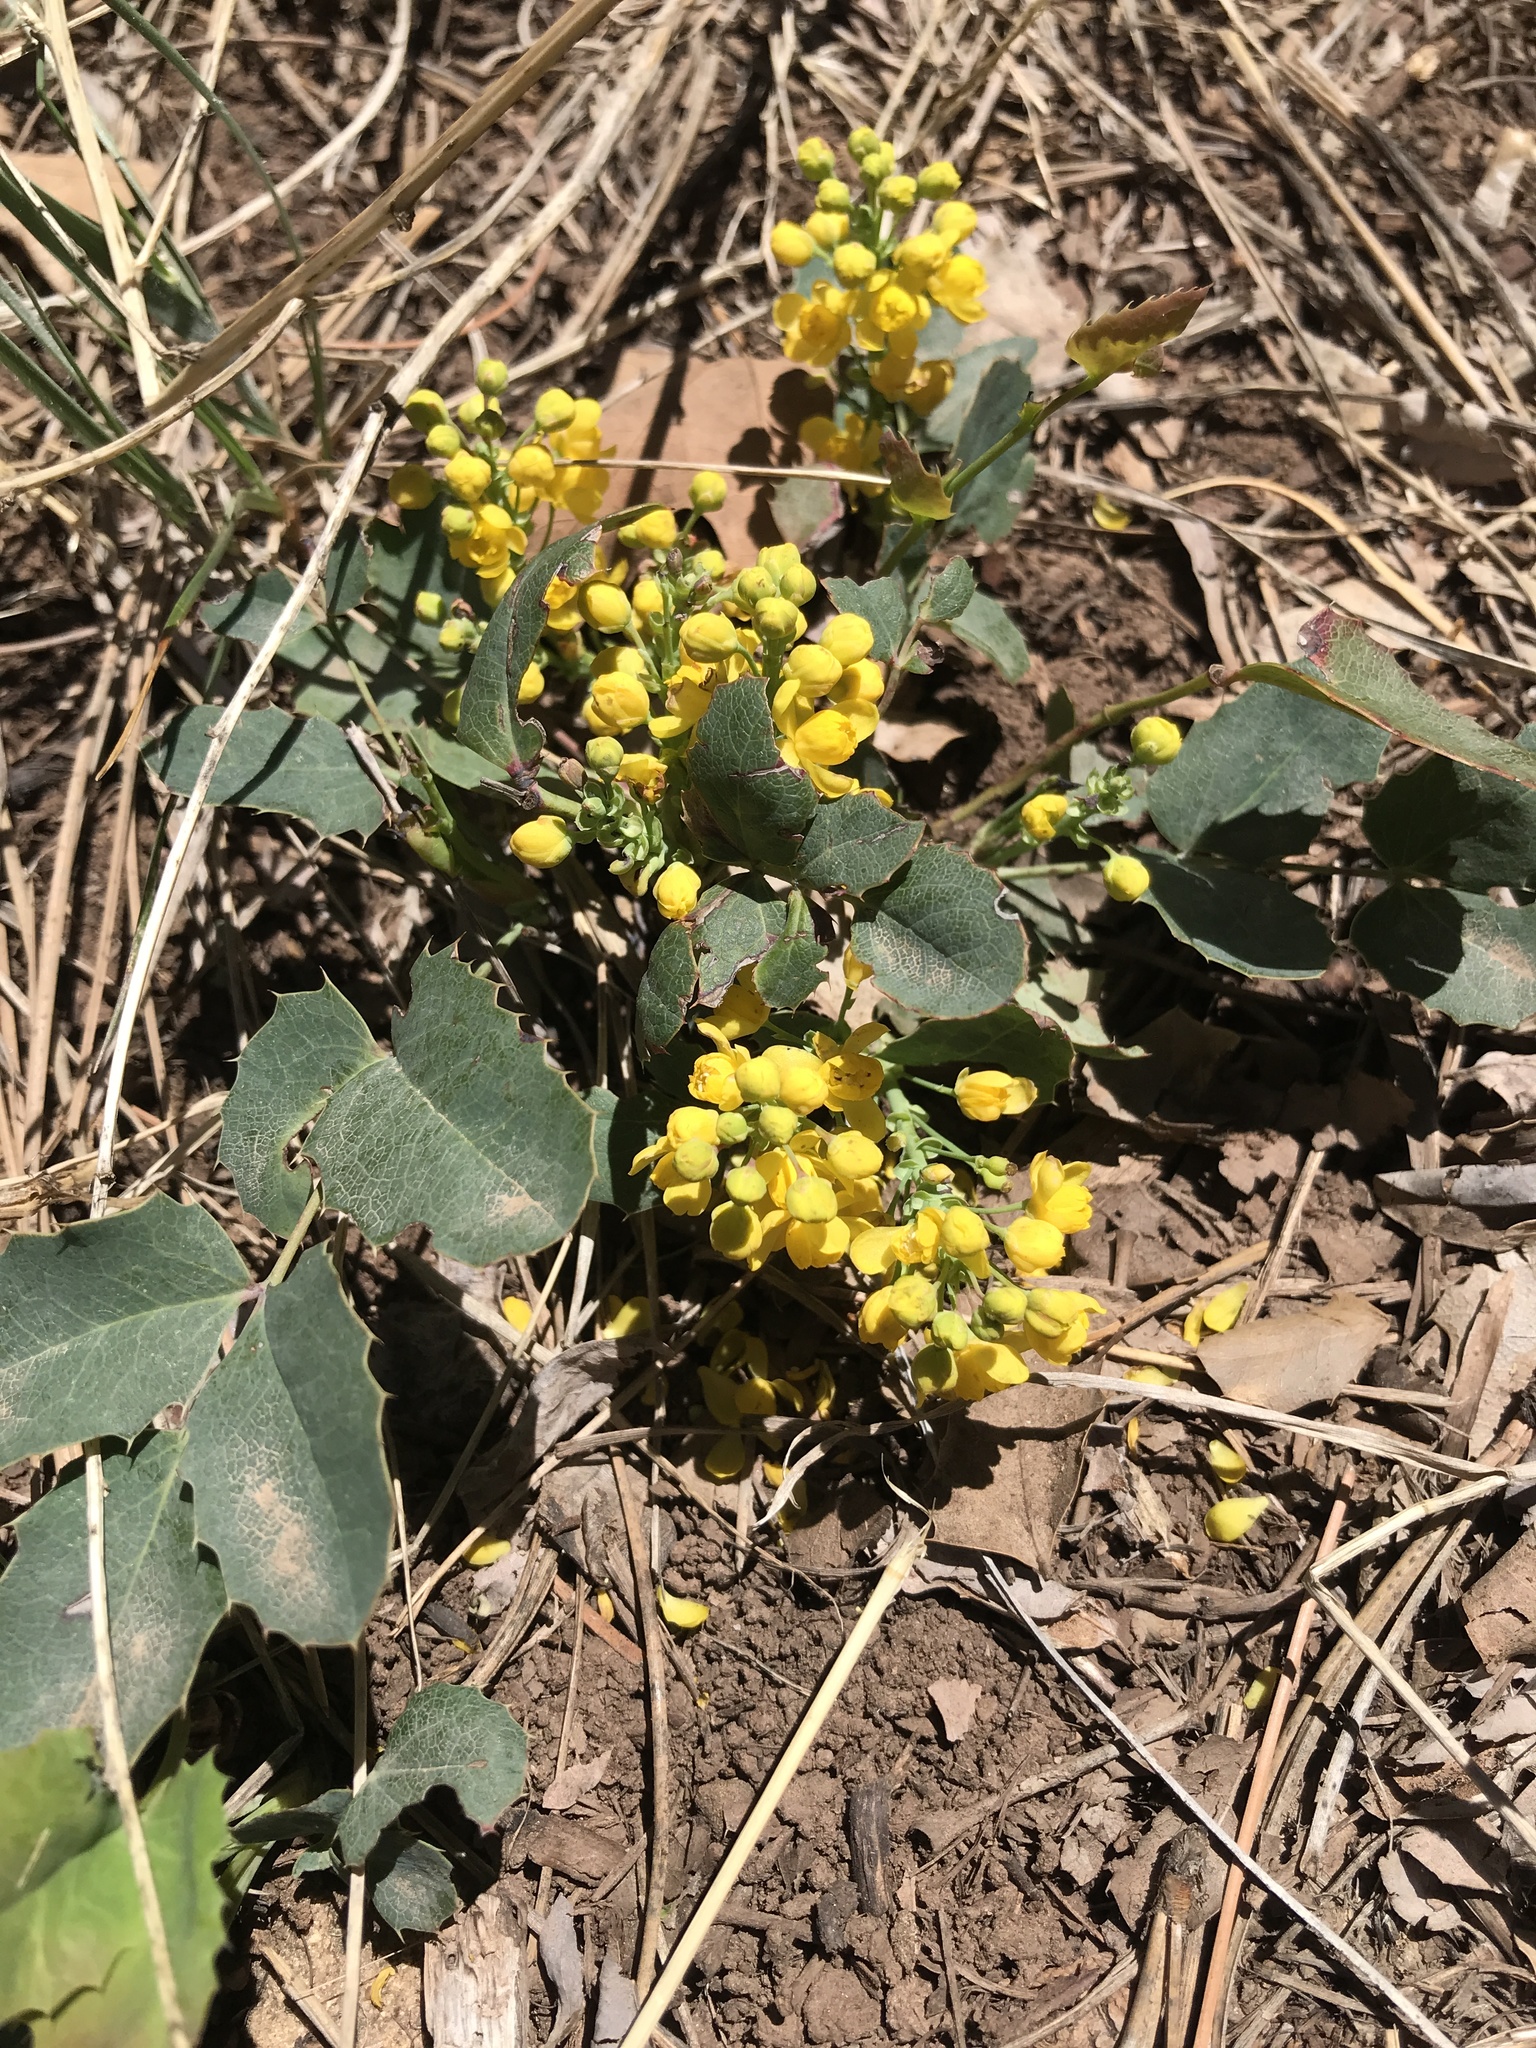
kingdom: Plantae
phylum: Tracheophyta
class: Magnoliopsida
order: Ranunculales
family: Berberidaceae
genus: Mahonia
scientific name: Mahonia repens
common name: Creeping oregon-grape
